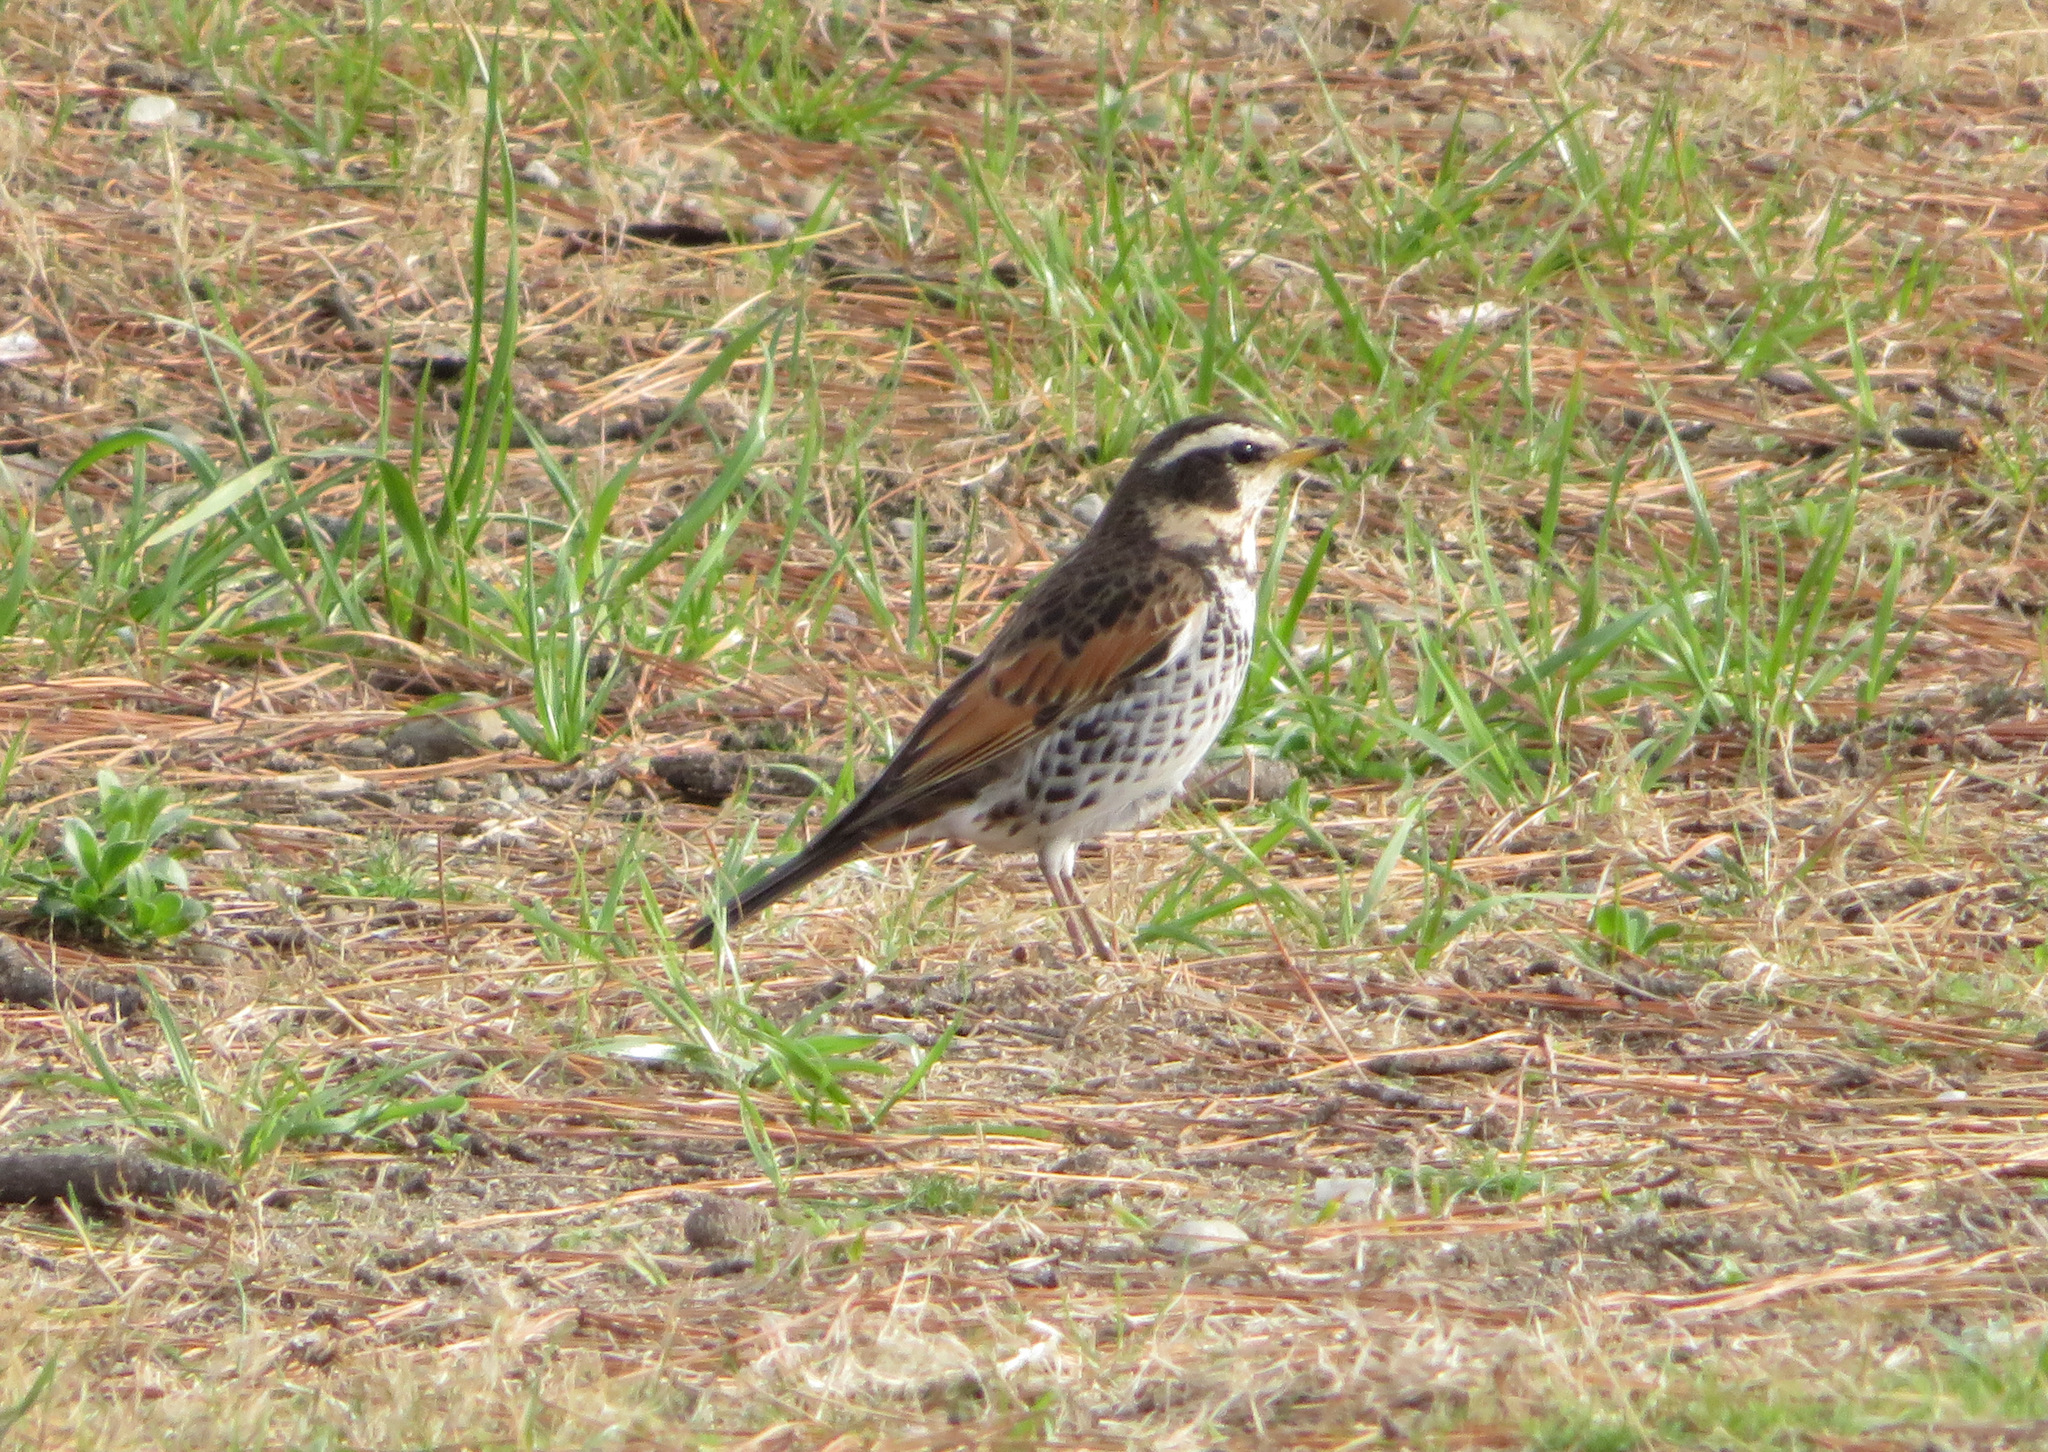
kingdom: Animalia
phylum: Chordata
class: Aves
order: Passeriformes
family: Turdidae
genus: Turdus
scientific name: Turdus eunomus
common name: Dusky thrush
